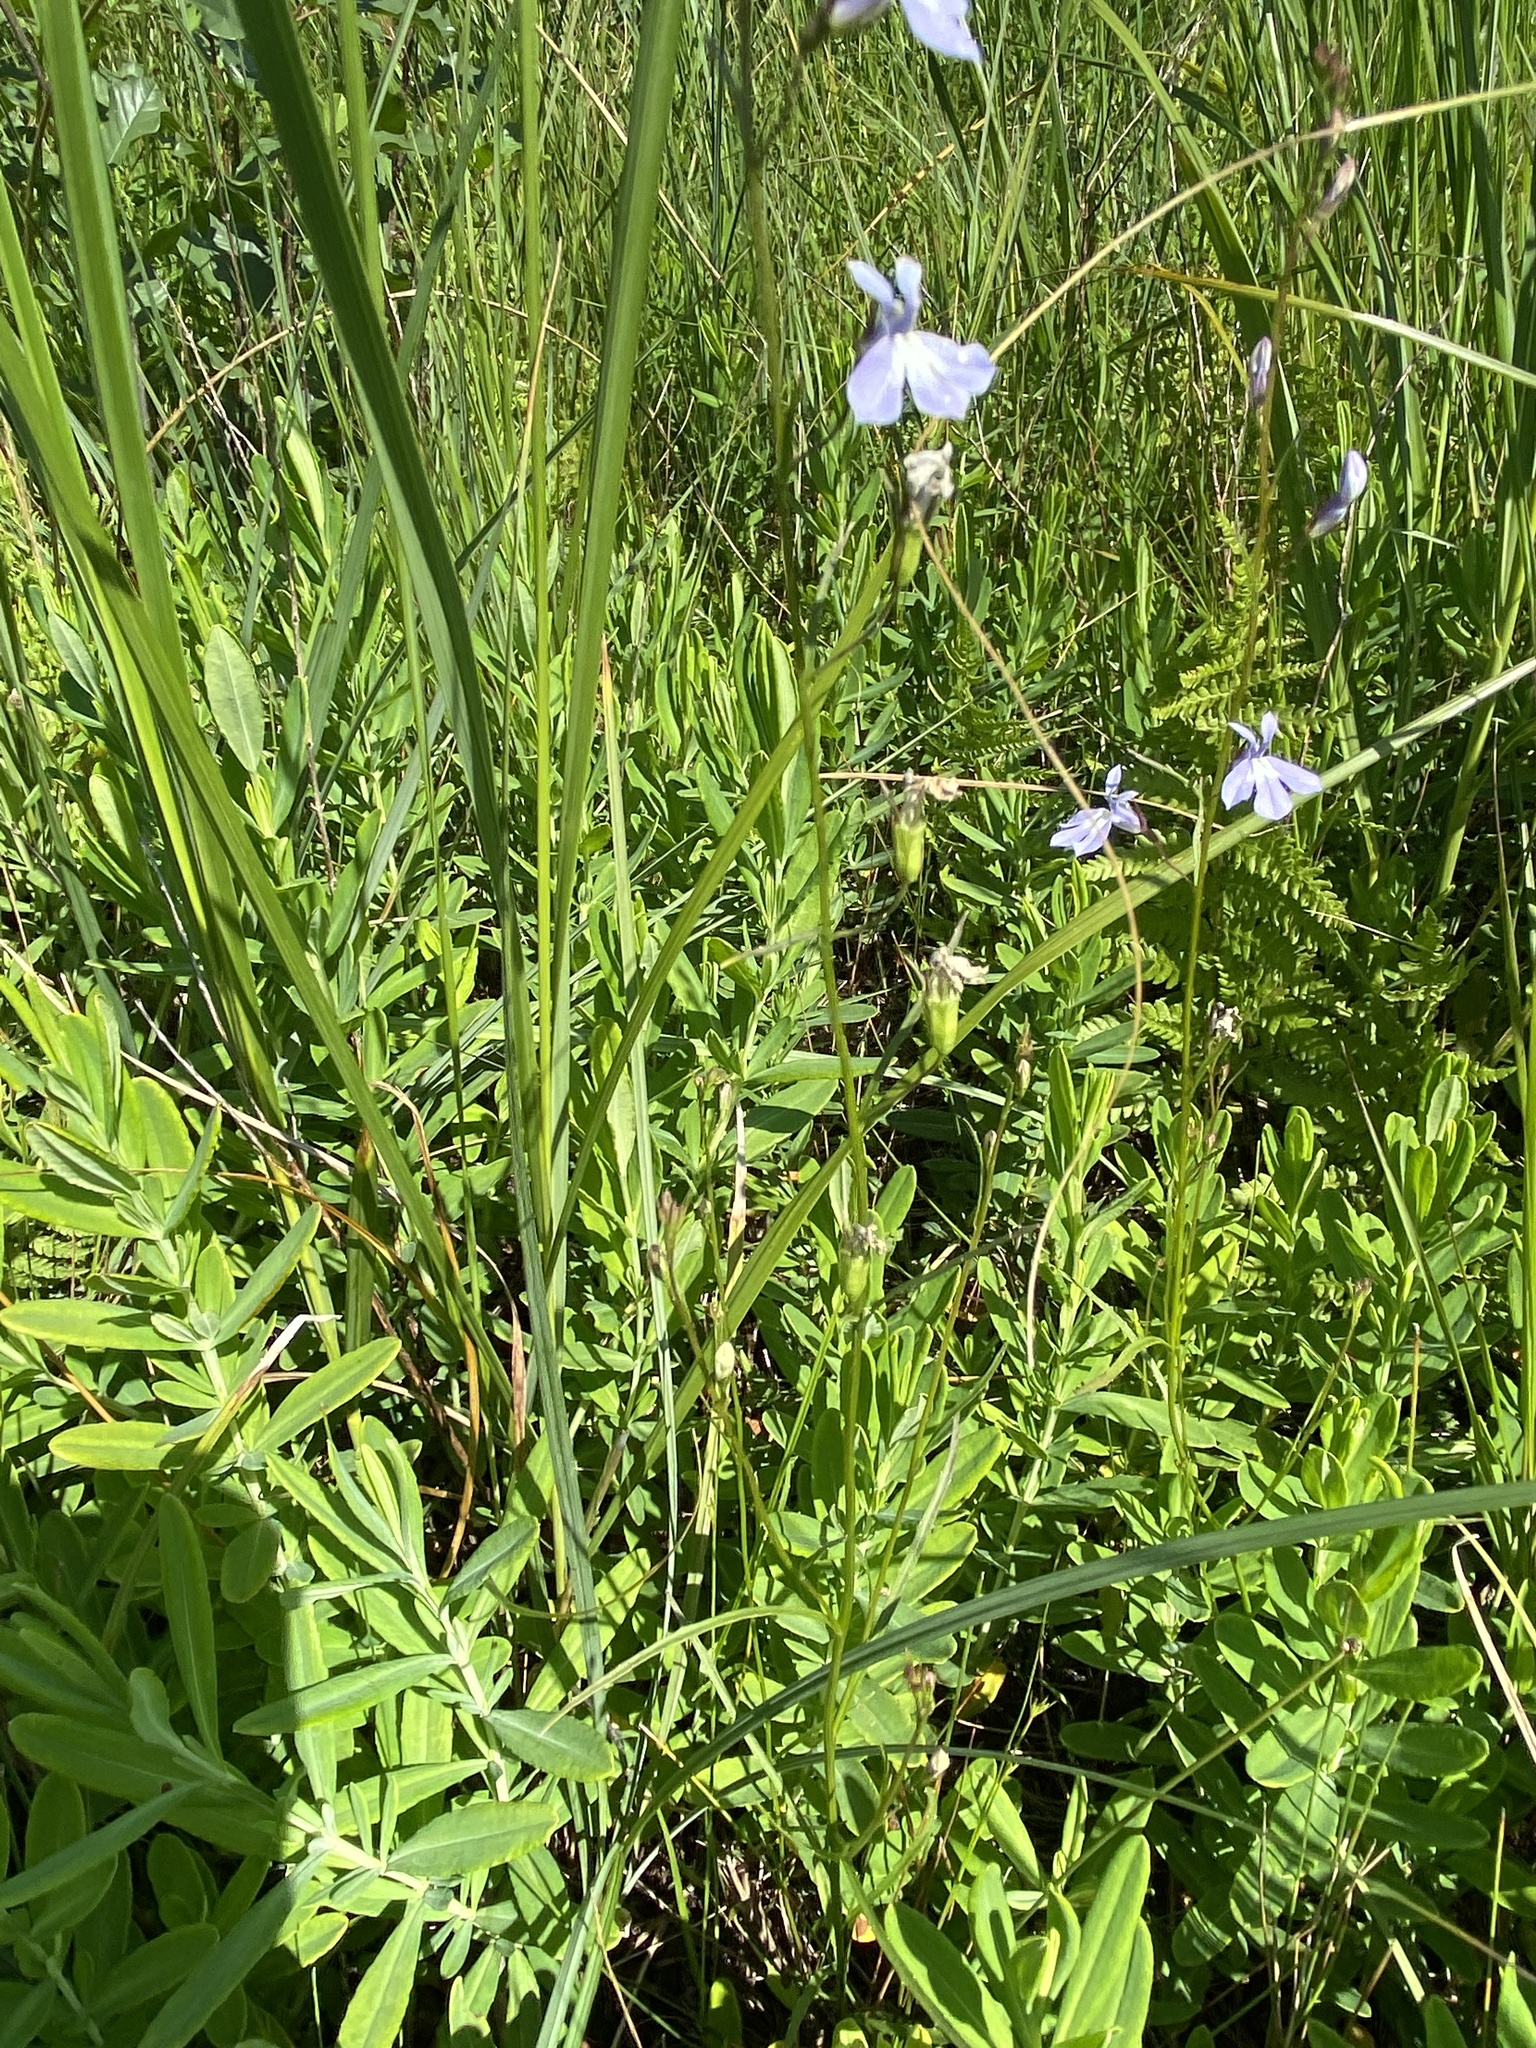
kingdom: Plantae
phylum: Tracheophyta
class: Magnoliopsida
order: Asterales
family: Campanulaceae
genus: Lobelia
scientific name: Lobelia kalmii
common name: Kalm's lobelia
